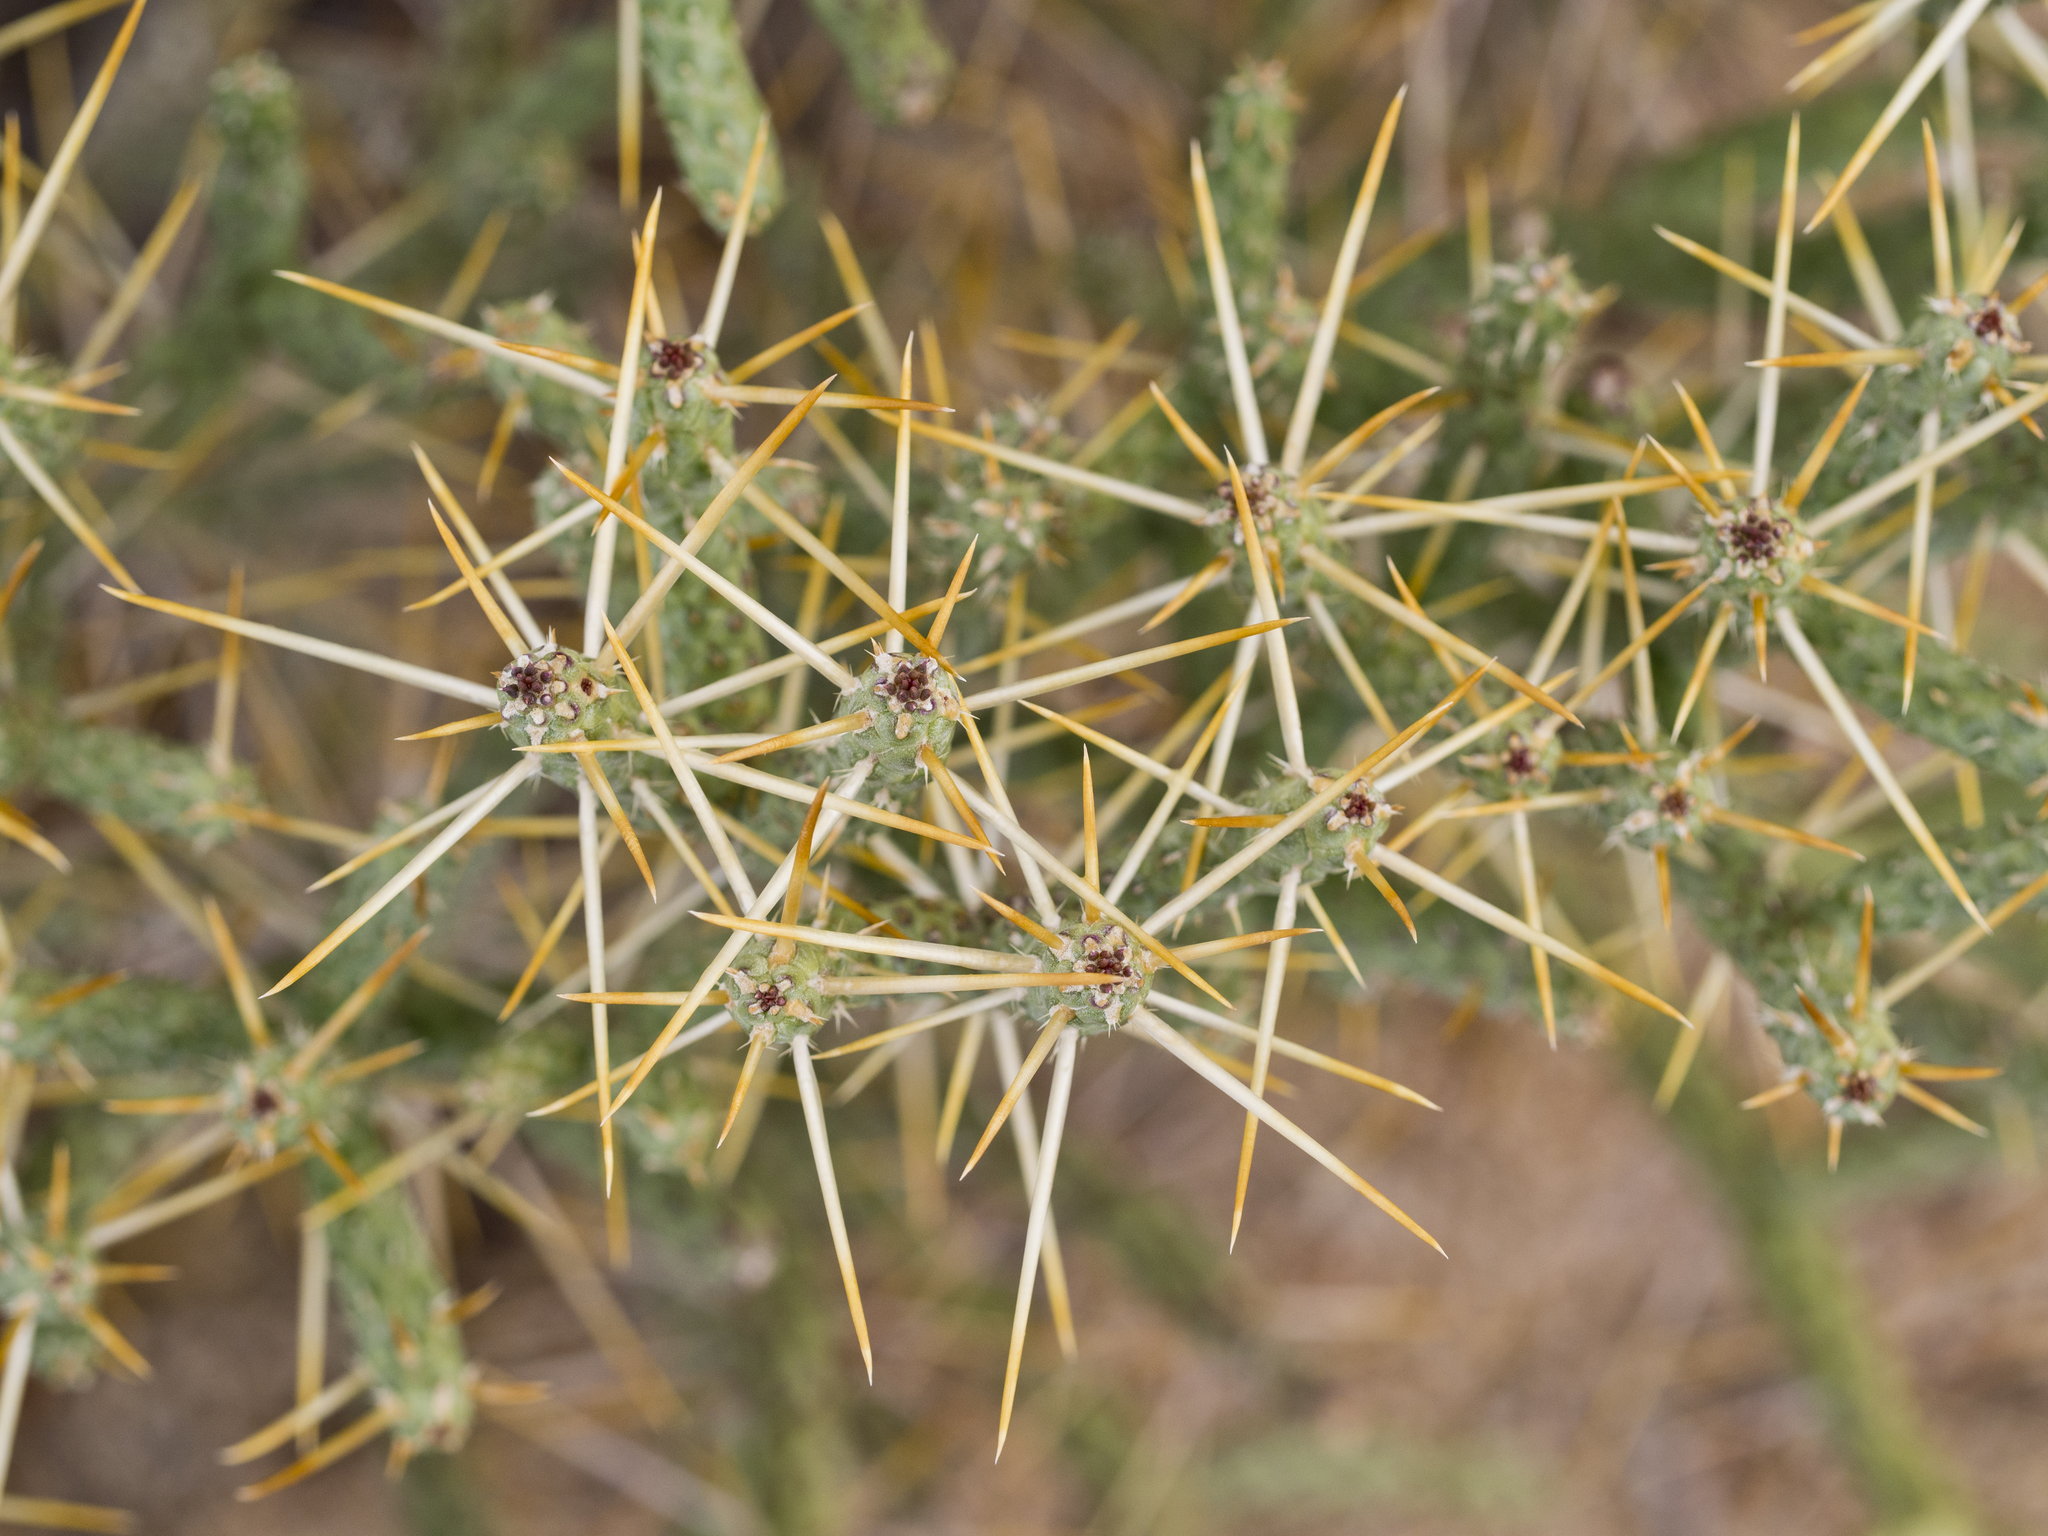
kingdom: Plantae
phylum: Tracheophyta
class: Magnoliopsida
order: Caryophyllales
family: Cactaceae
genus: Cylindropuntia
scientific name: Cylindropuntia ramosissima
